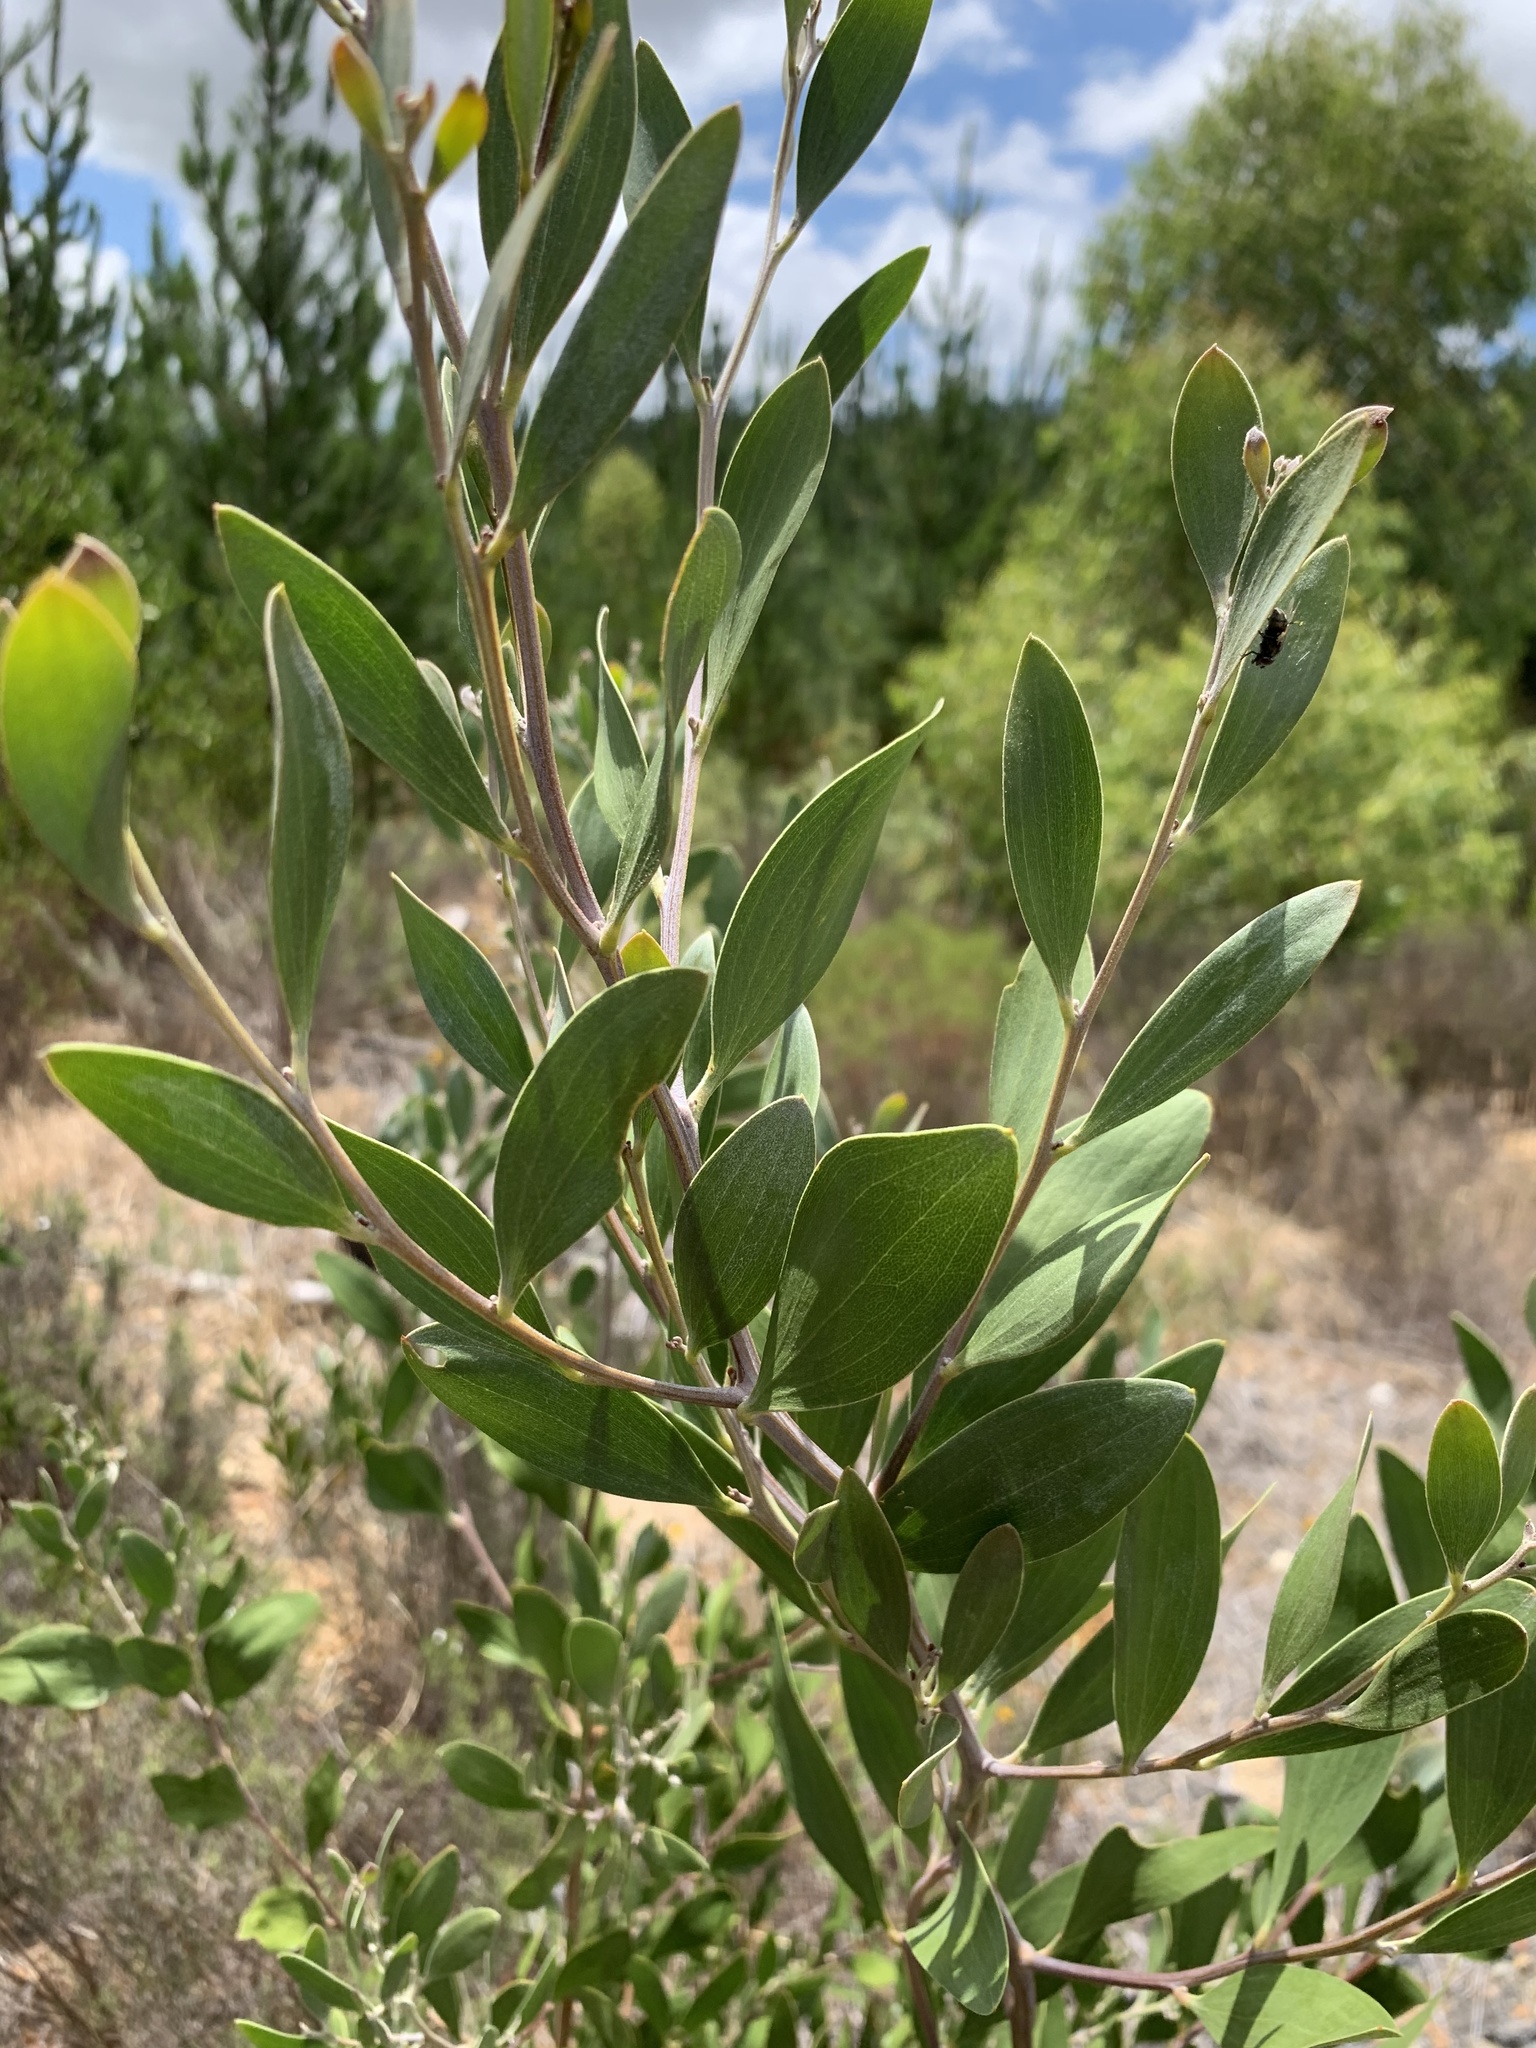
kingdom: Plantae
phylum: Tracheophyta
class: Magnoliopsida
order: Fabales
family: Fabaceae
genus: Acacia
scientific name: Acacia melanoxylon
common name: Blackwood
